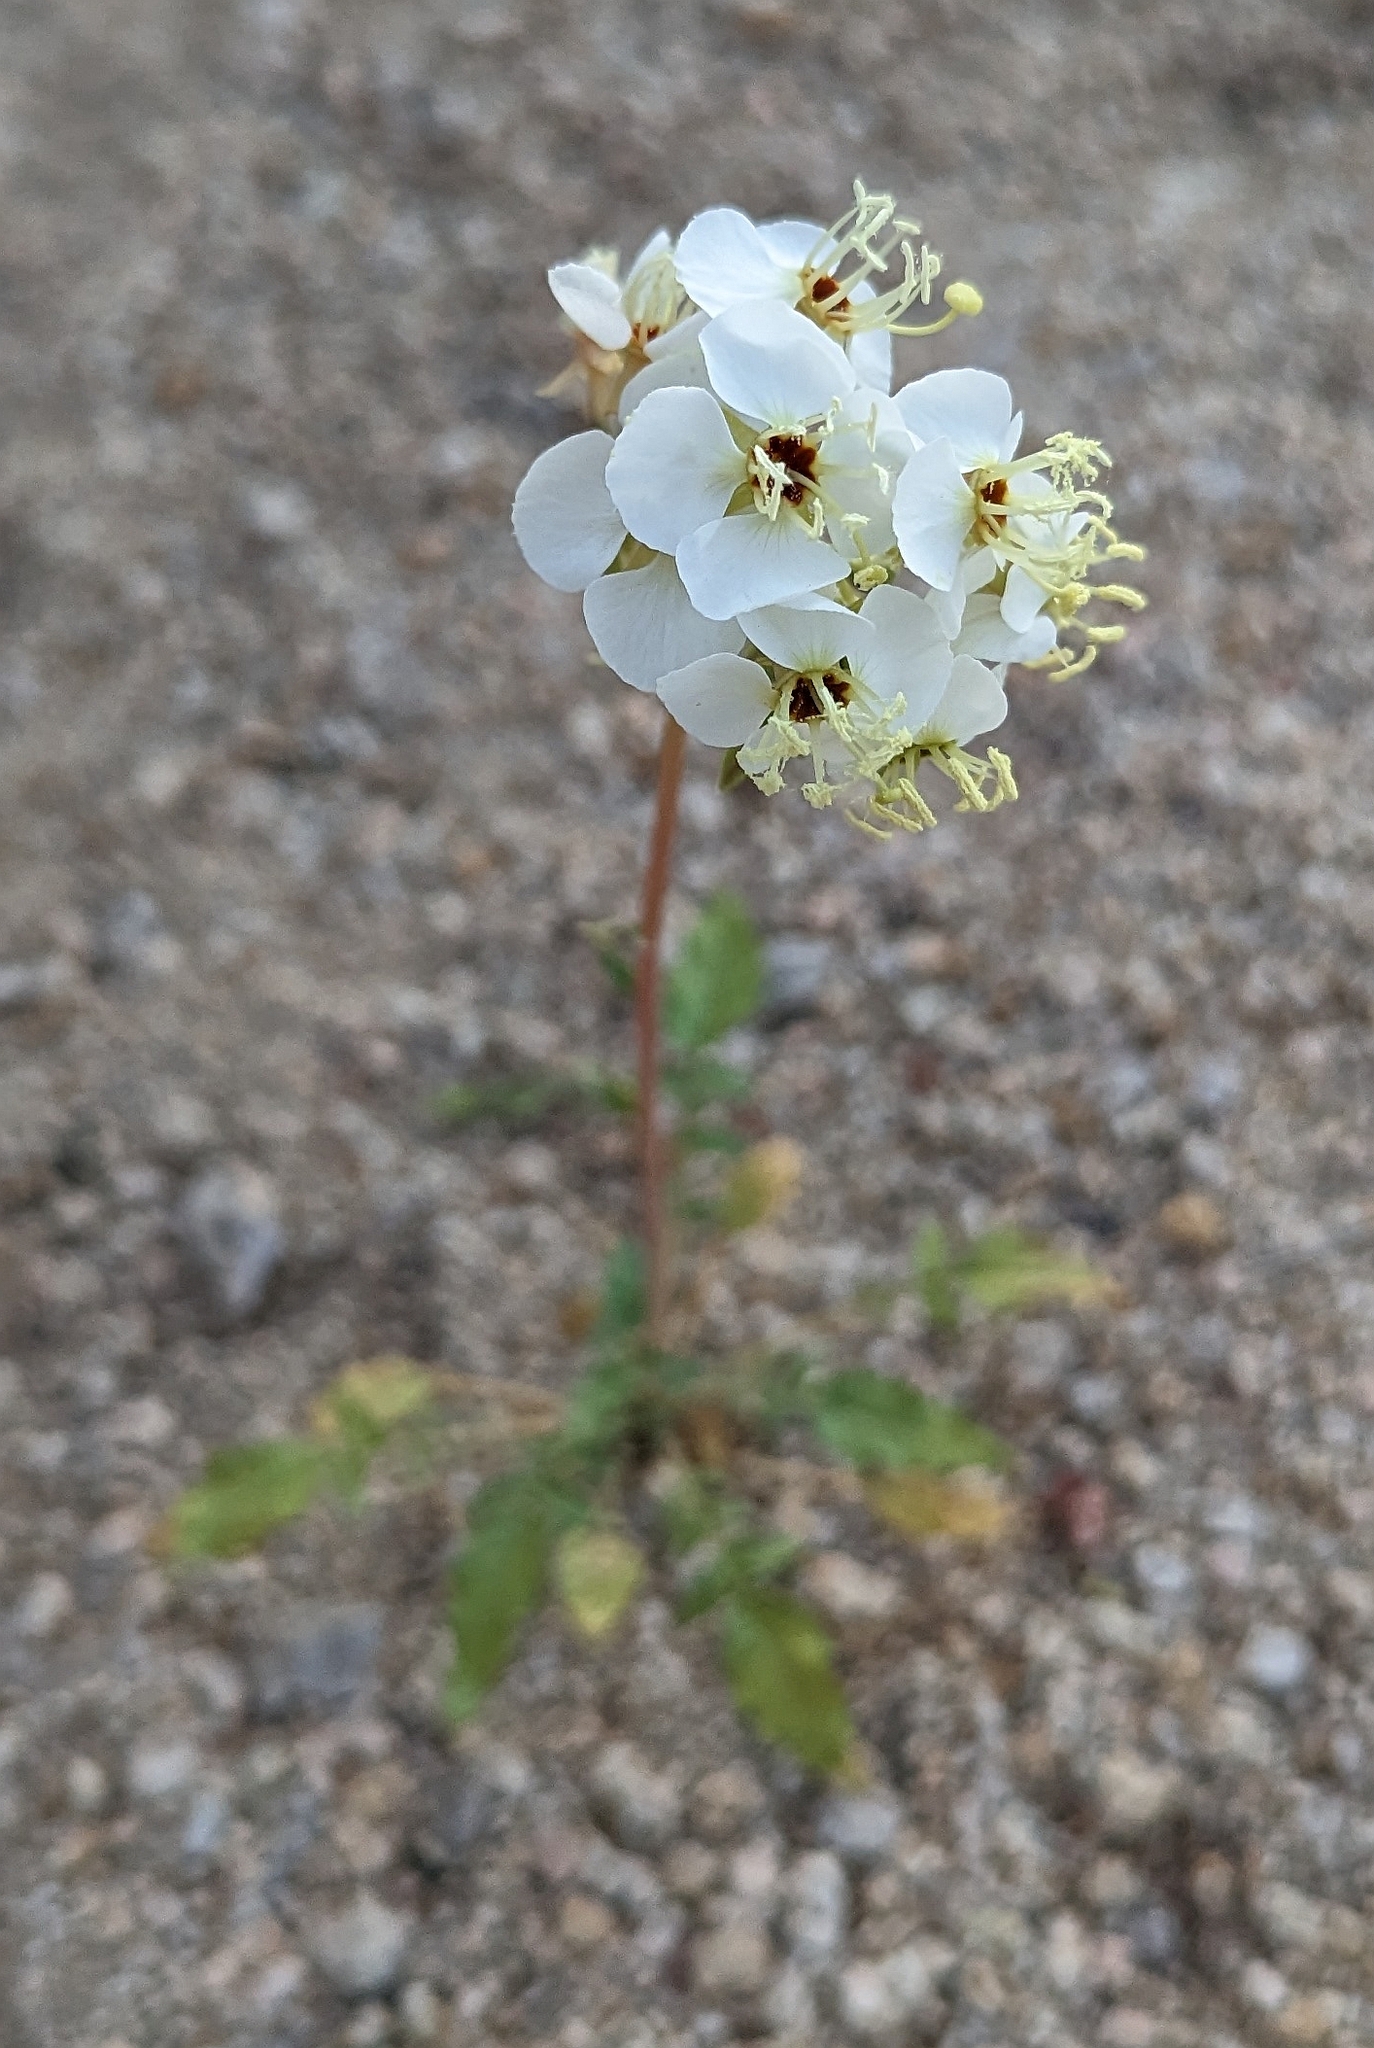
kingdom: Plantae
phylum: Tracheophyta
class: Magnoliopsida
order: Myrtales
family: Onagraceae
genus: Chylismia
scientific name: Chylismia claviformis
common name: Browneyes
